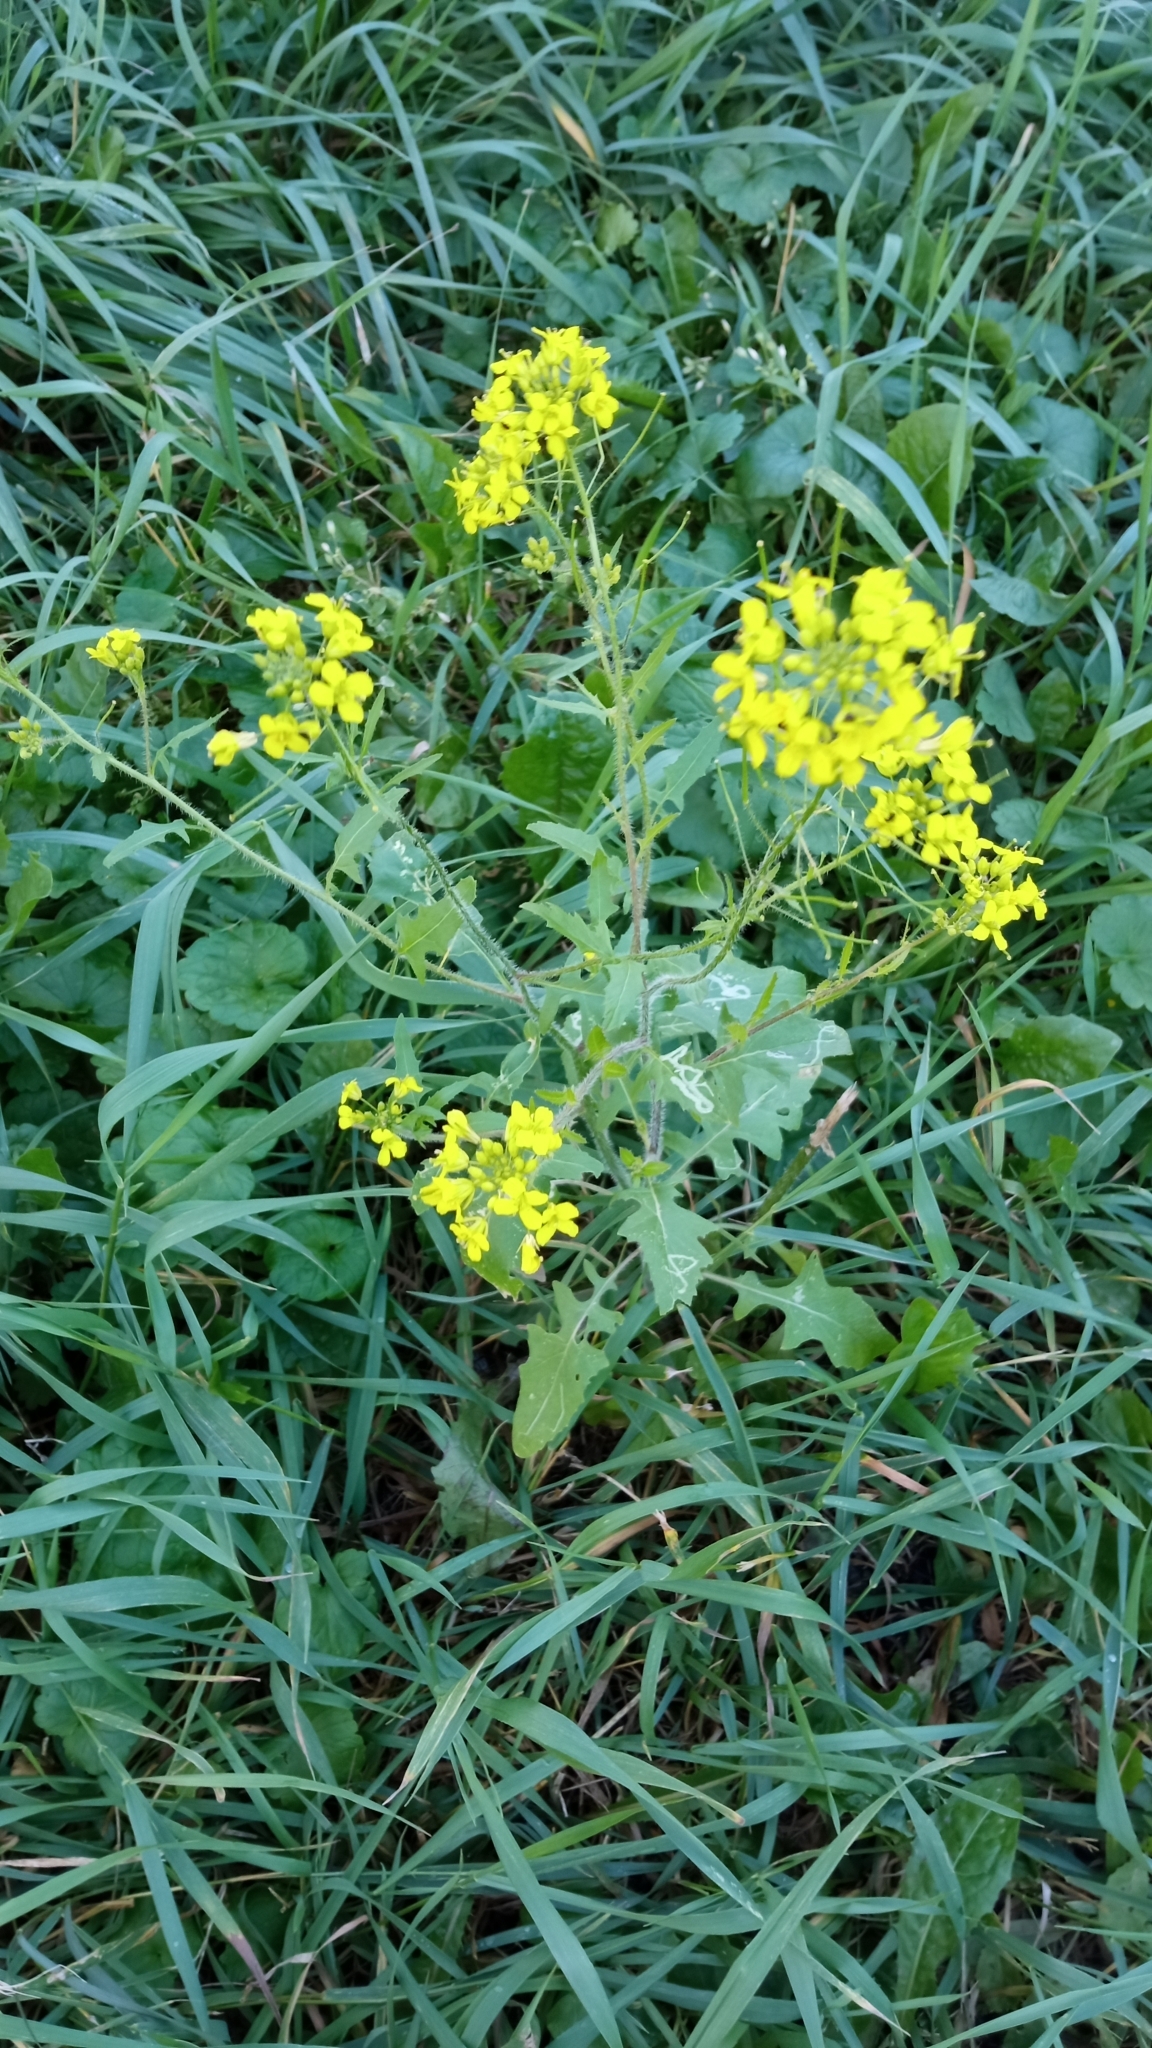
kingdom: Plantae
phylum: Tracheophyta
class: Magnoliopsida
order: Brassicales
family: Brassicaceae
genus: Sisymbrium
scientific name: Sisymbrium loeselii
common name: False london-rocket
